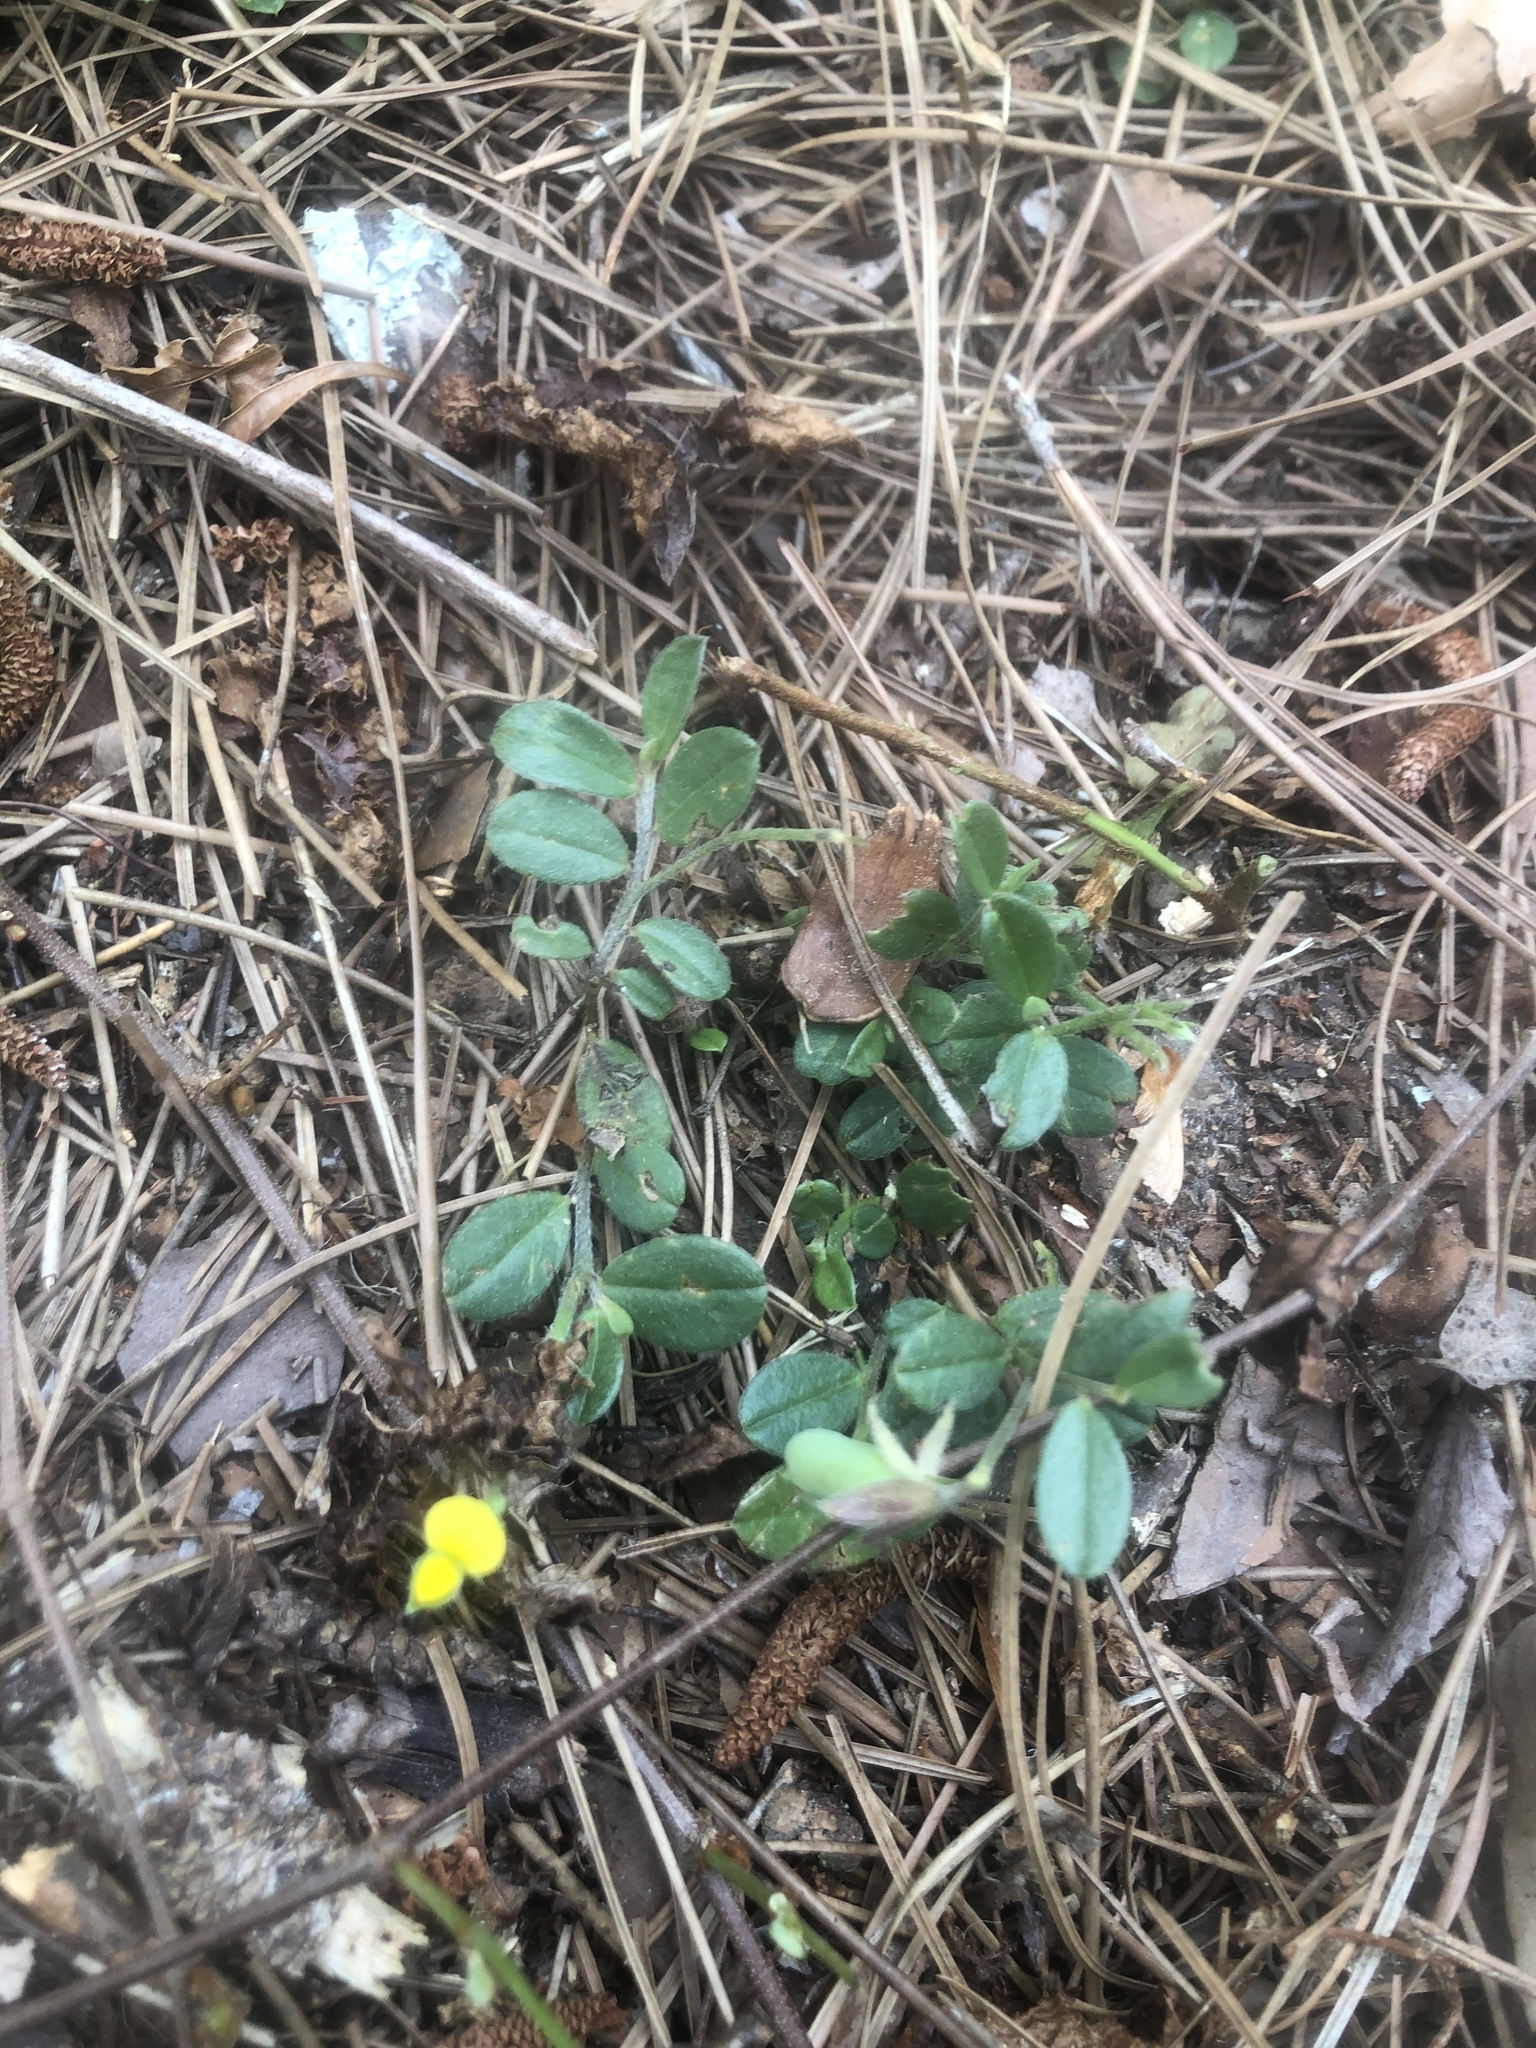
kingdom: Plantae
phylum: Tracheophyta
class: Magnoliopsida
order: Fabales
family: Fabaceae
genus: Crotalaria
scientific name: Crotalaria rotundifolia
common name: Prostrate rattlebox
